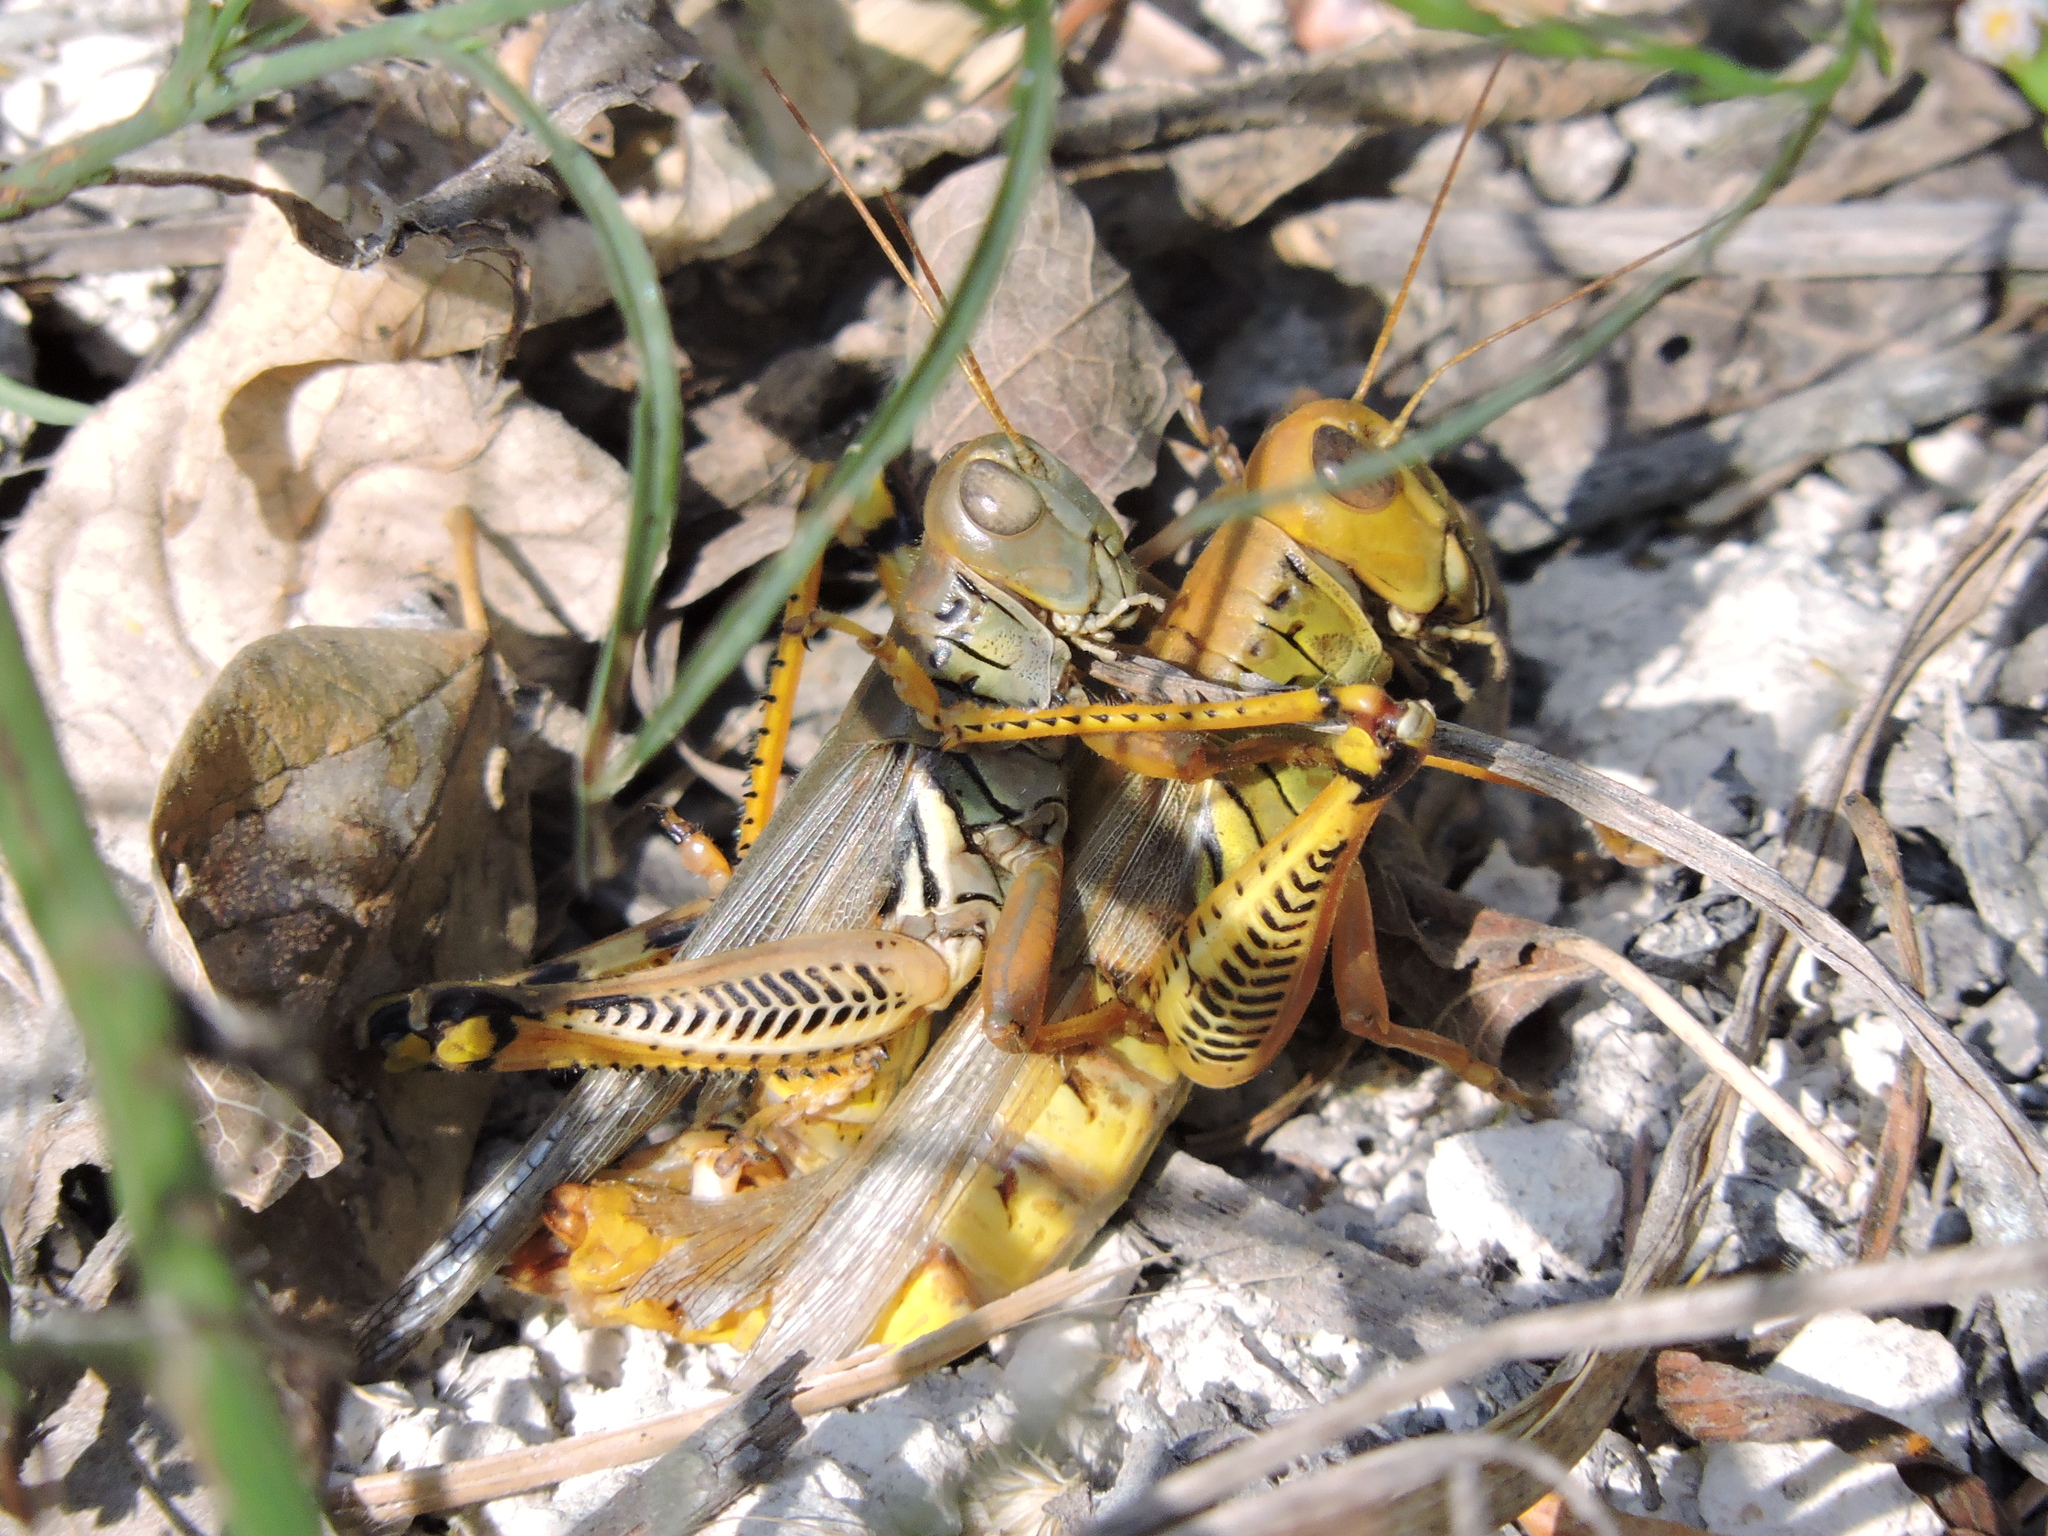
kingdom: Animalia
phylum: Arthropoda
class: Insecta
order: Orthoptera
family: Acrididae
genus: Melanoplus
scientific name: Melanoplus differentialis
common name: Differential grasshopper
